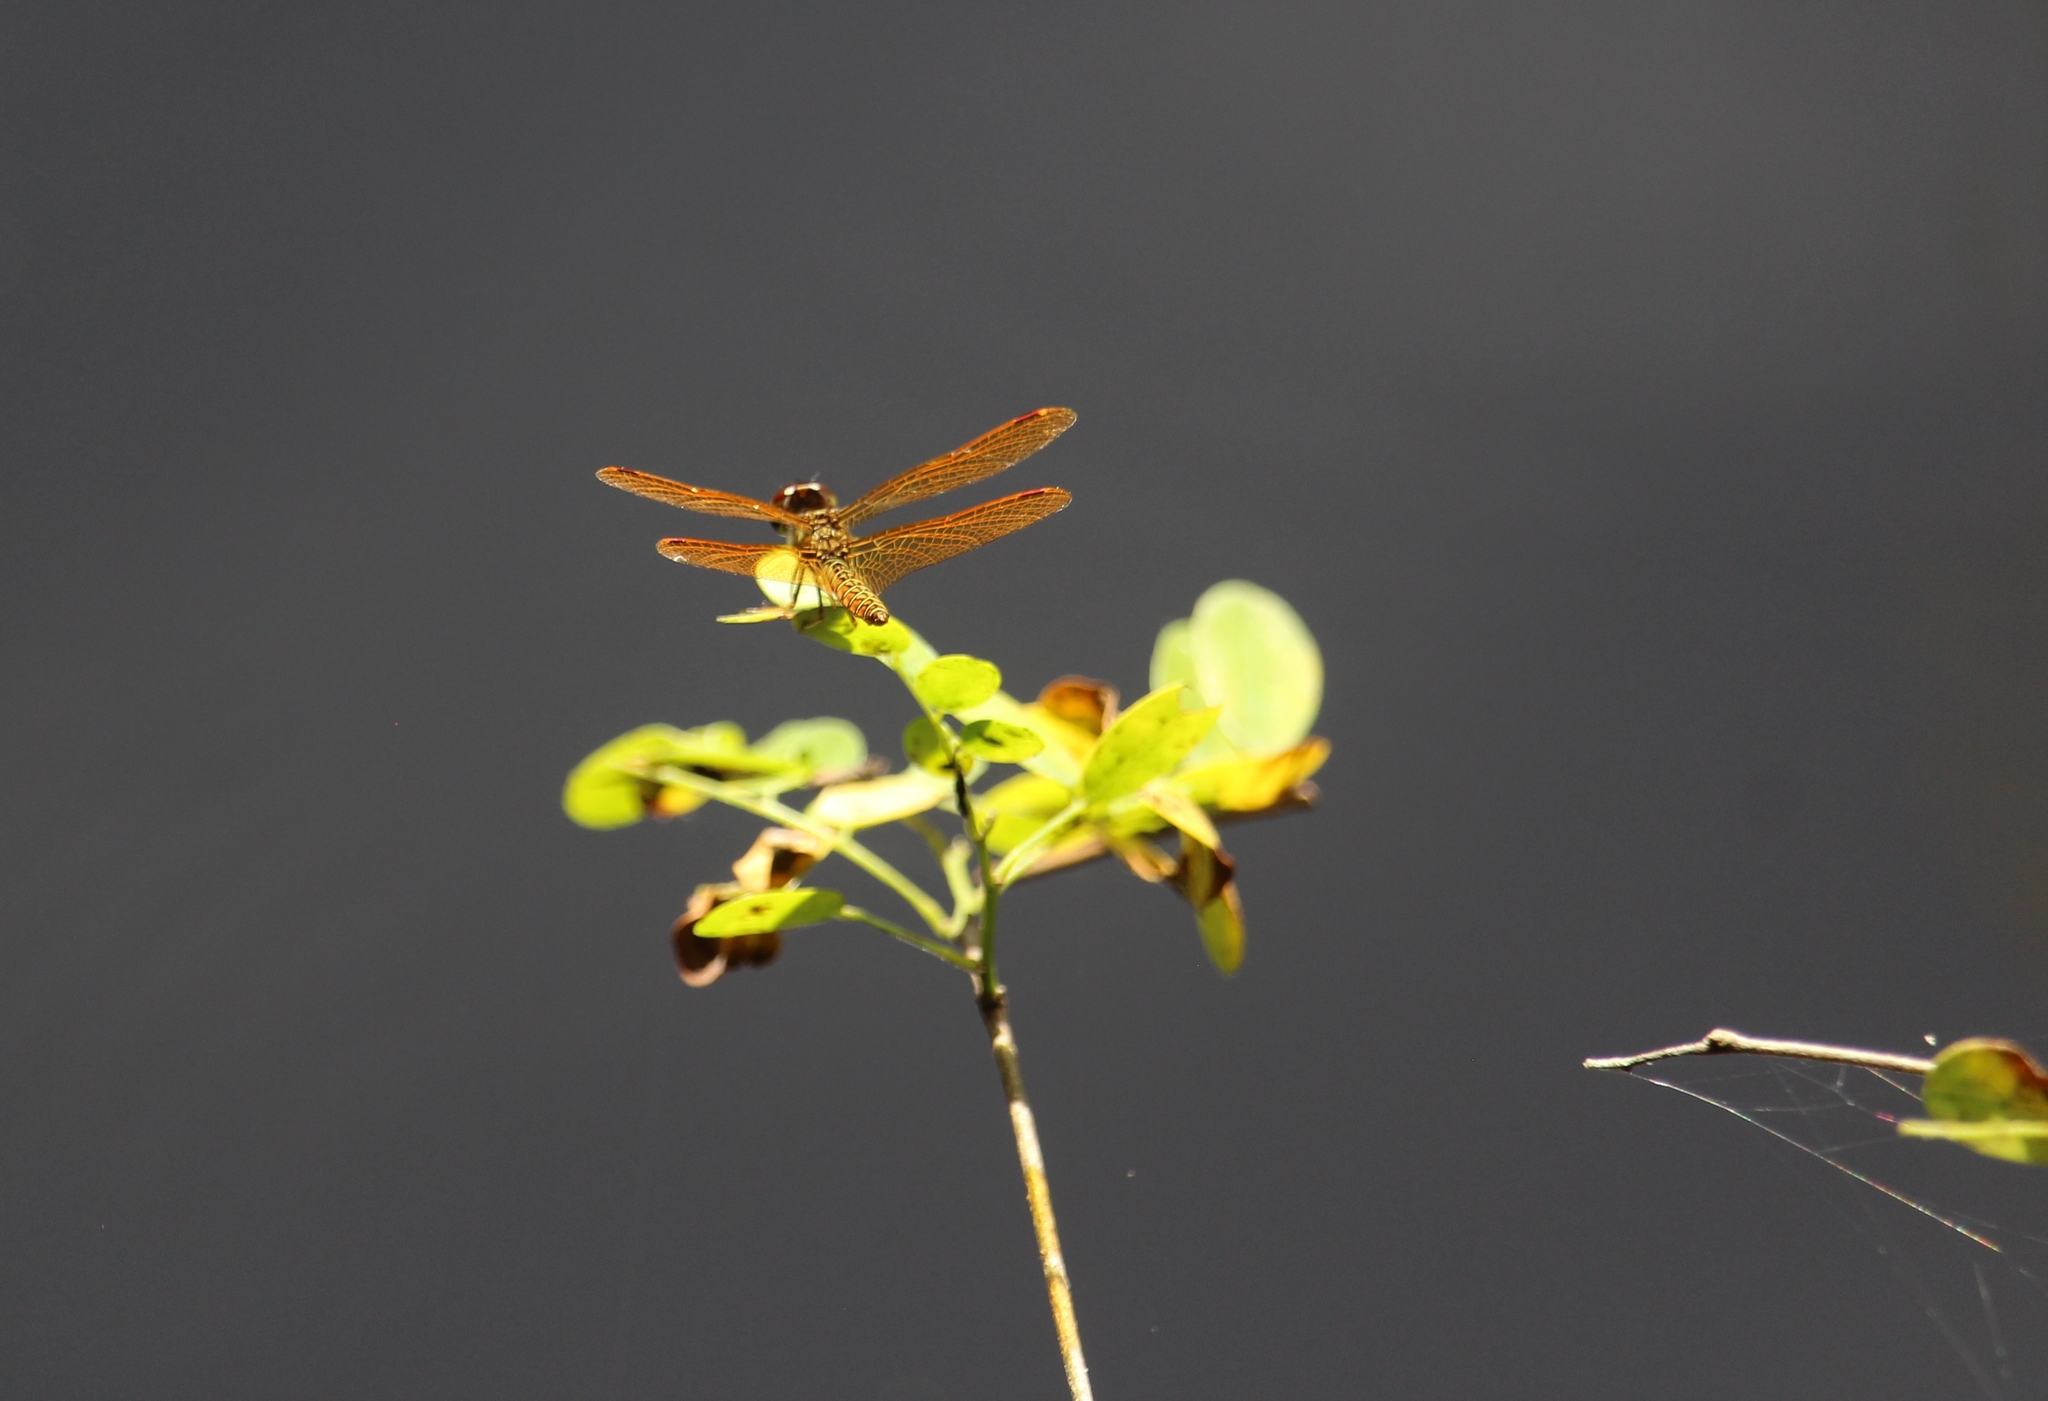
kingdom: Animalia
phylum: Arthropoda
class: Insecta
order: Odonata
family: Libellulidae
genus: Perithemis
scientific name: Perithemis tenera
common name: Eastern amberwing
